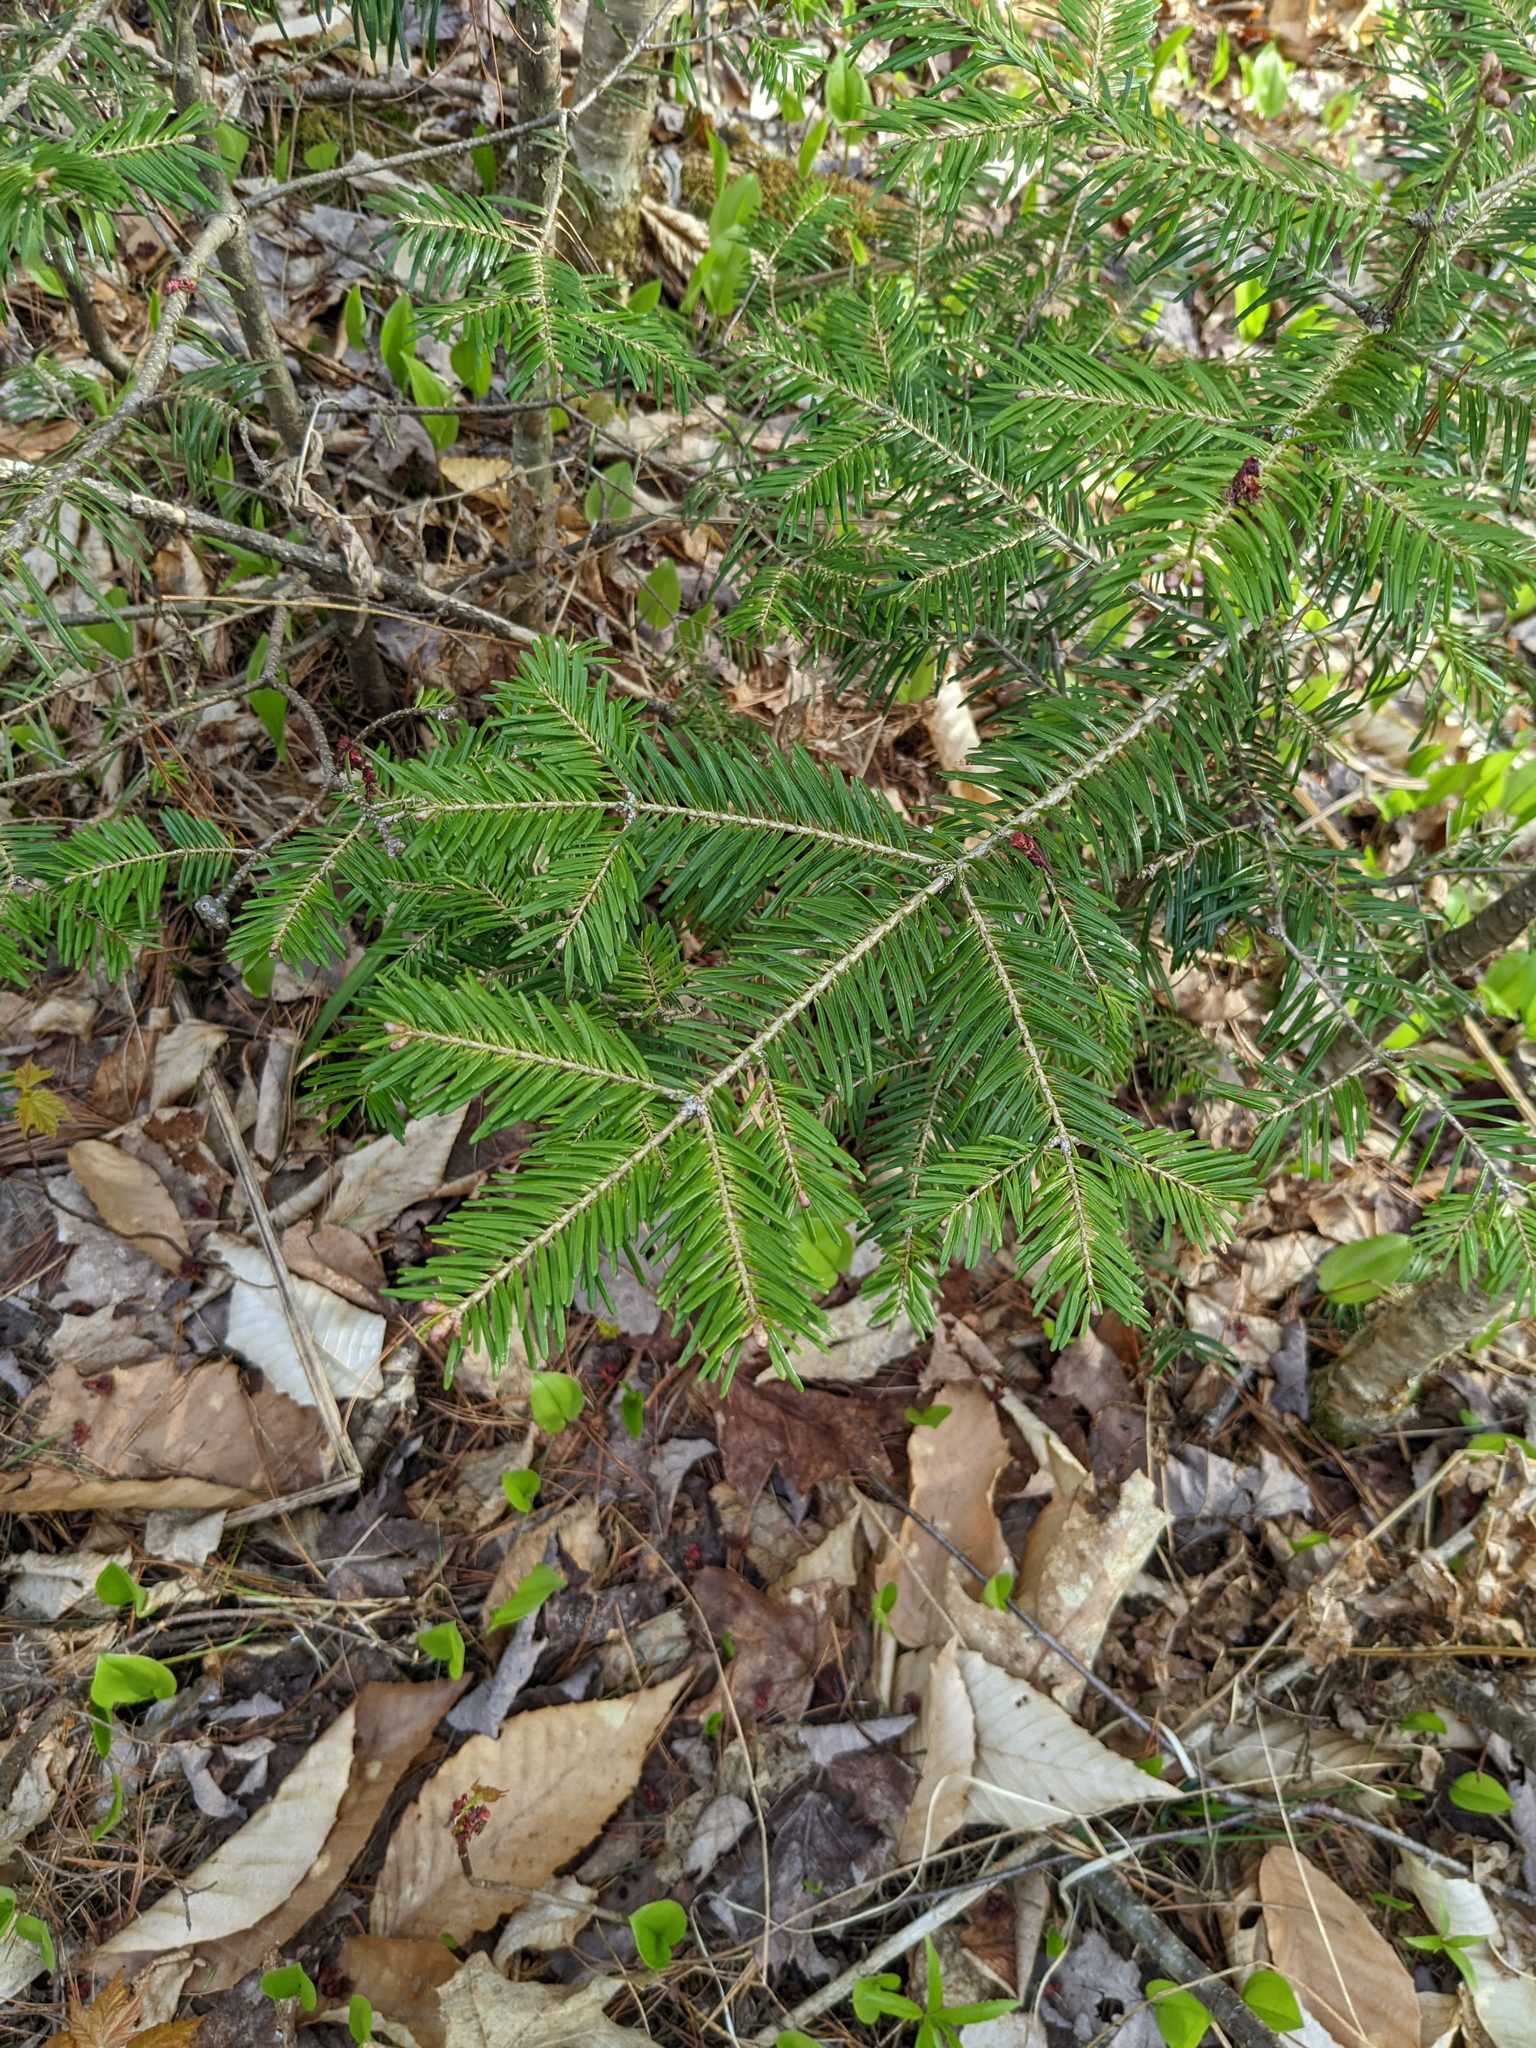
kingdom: Plantae
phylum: Tracheophyta
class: Pinopsida
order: Pinales
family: Pinaceae
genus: Abies
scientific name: Abies balsamea
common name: Balsam fir
